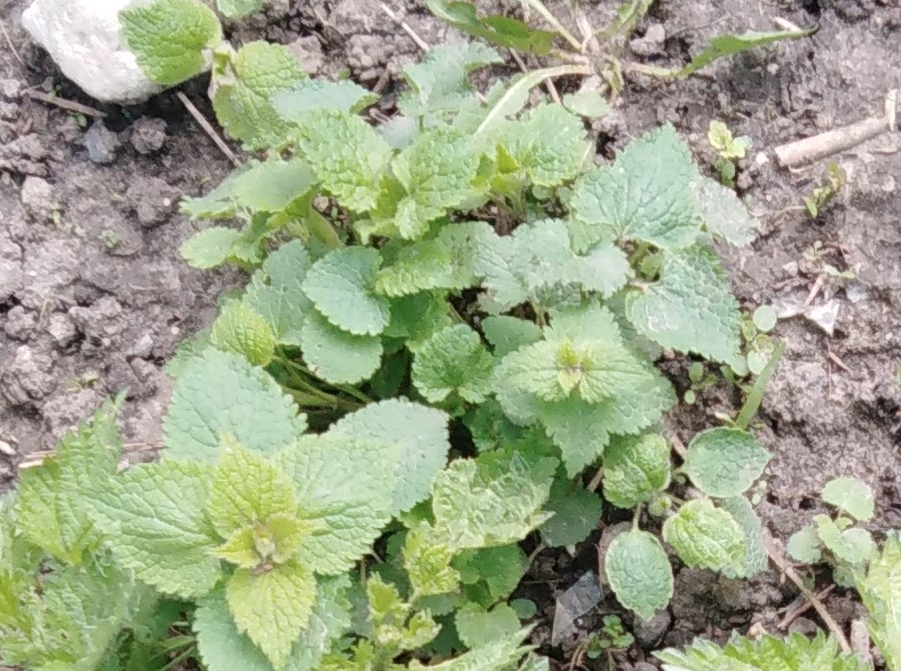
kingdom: Plantae
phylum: Tracheophyta
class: Magnoliopsida
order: Lamiales
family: Lamiaceae
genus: Lamium
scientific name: Lamium album
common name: White dead-nettle
